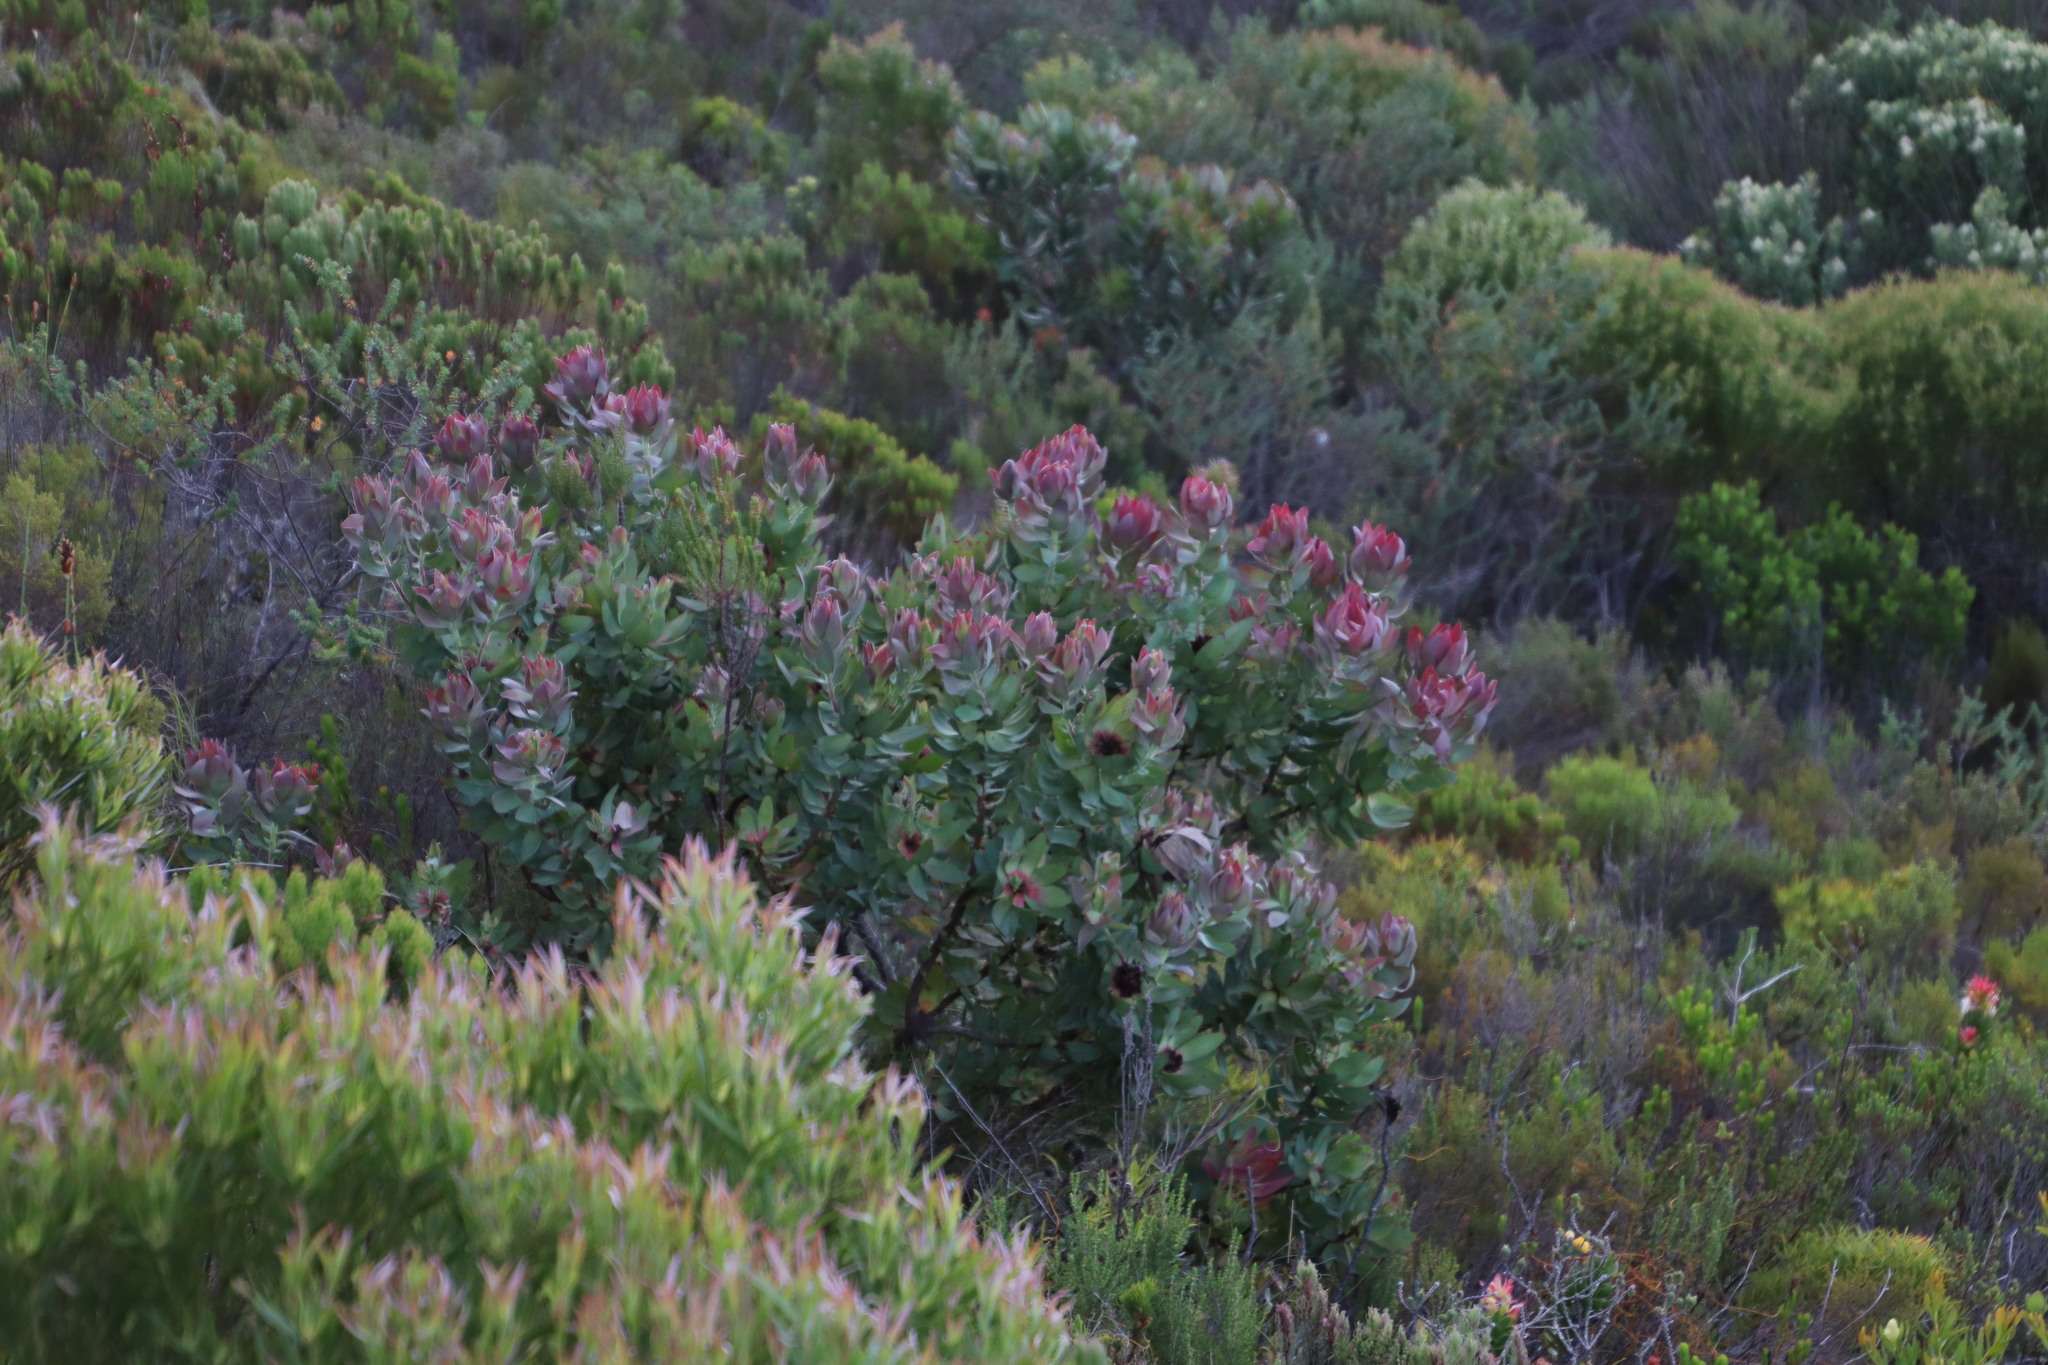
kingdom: Plantae
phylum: Tracheophyta
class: Magnoliopsida
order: Proteales
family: Proteaceae
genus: Leucadendron
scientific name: Leucadendron tinctum
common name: Spicy conebush
